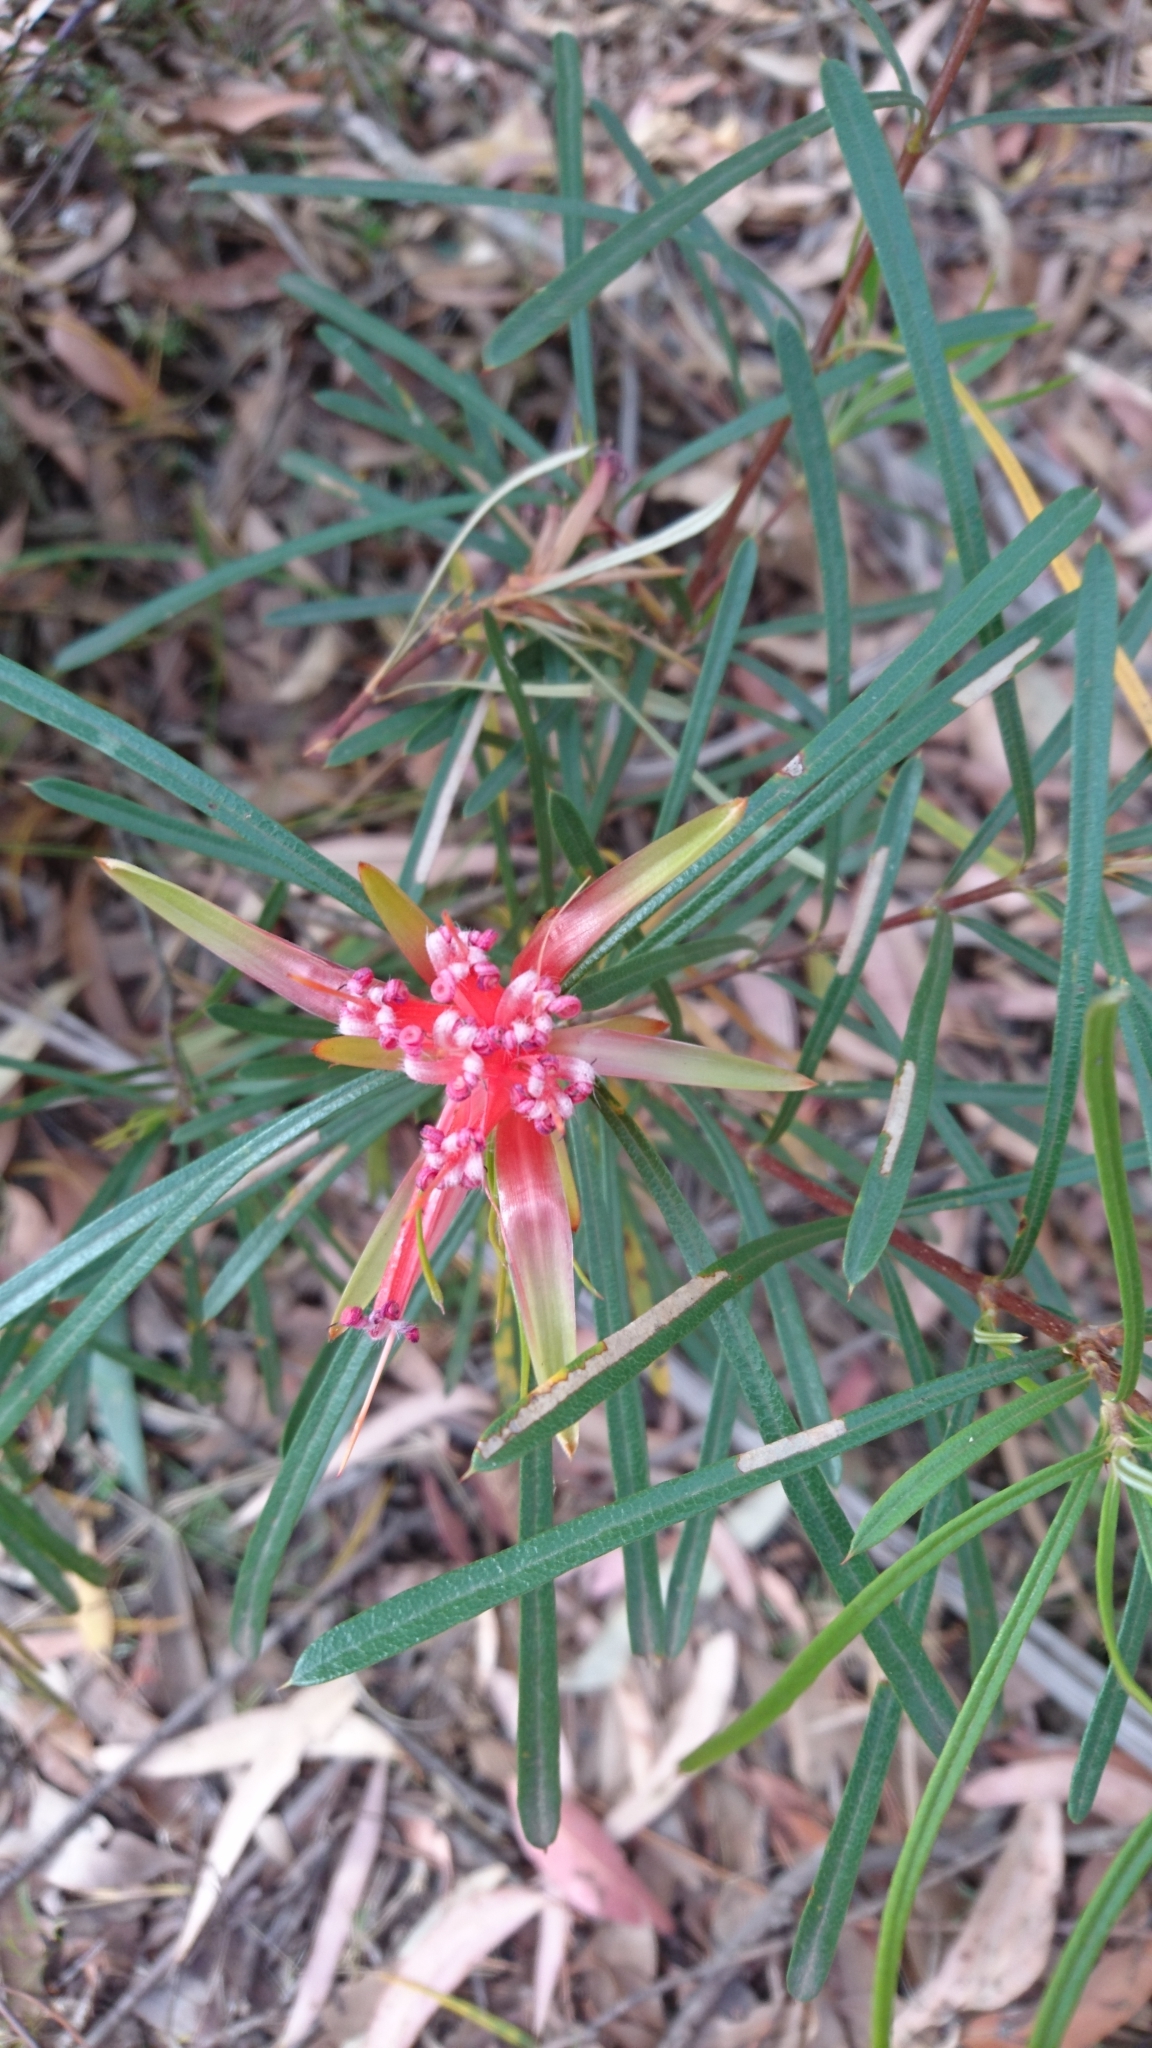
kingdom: Plantae
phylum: Tracheophyta
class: Magnoliopsida
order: Proteales
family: Proteaceae
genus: Lambertia
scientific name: Lambertia formosa
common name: Mountain-devil
